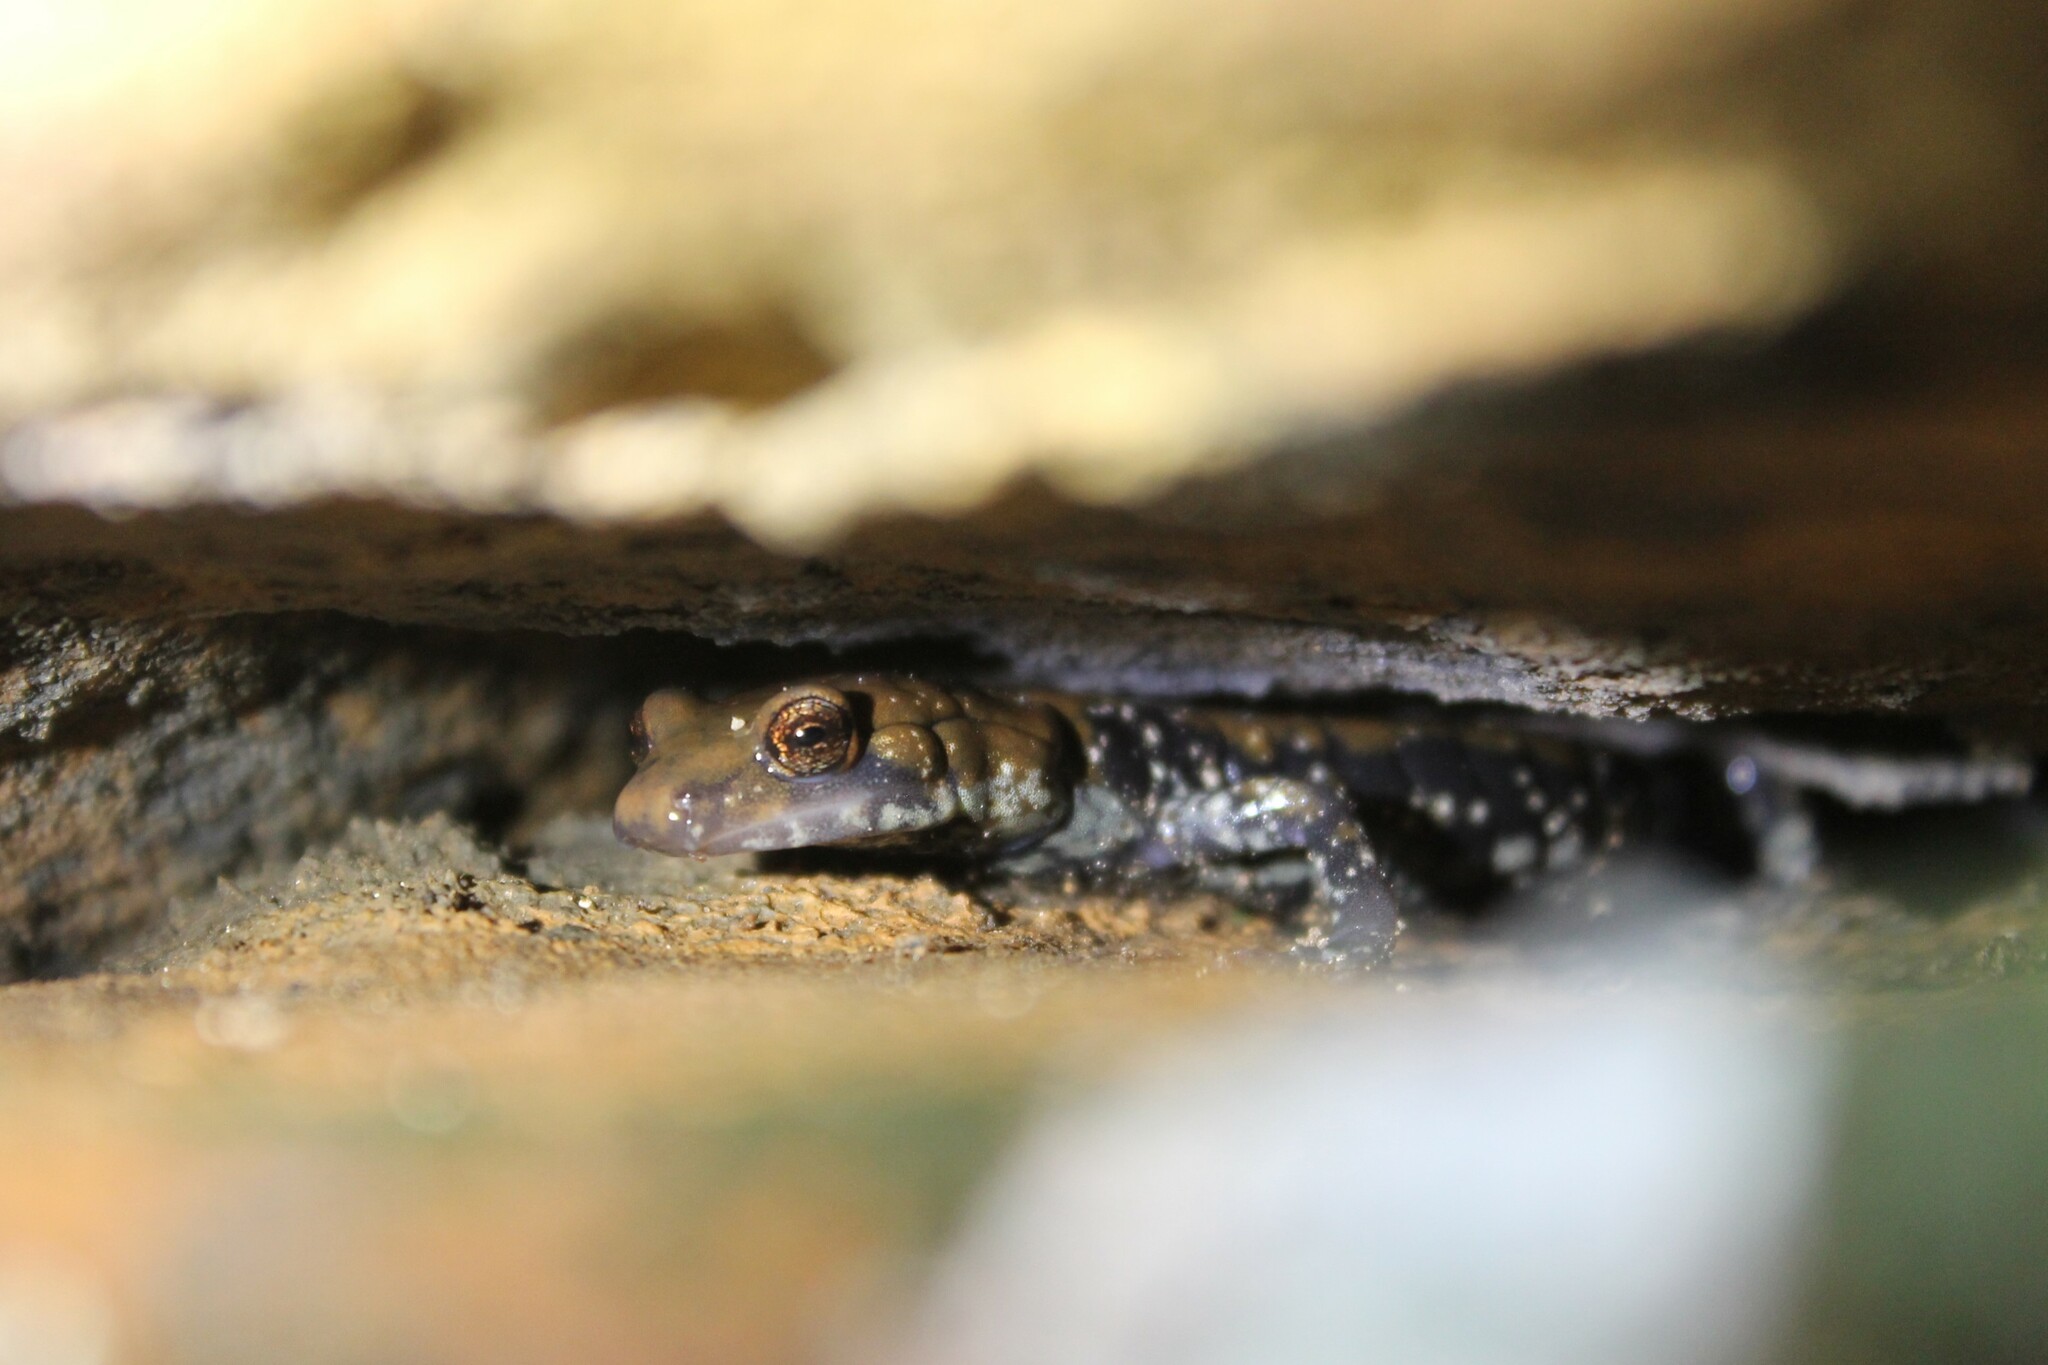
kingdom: Animalia
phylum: Chordata
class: Amphibia
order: Caudata
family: Plethodontidae
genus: Plethodon
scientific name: Plethodon petraeus
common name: Pigeon mountain salamander
